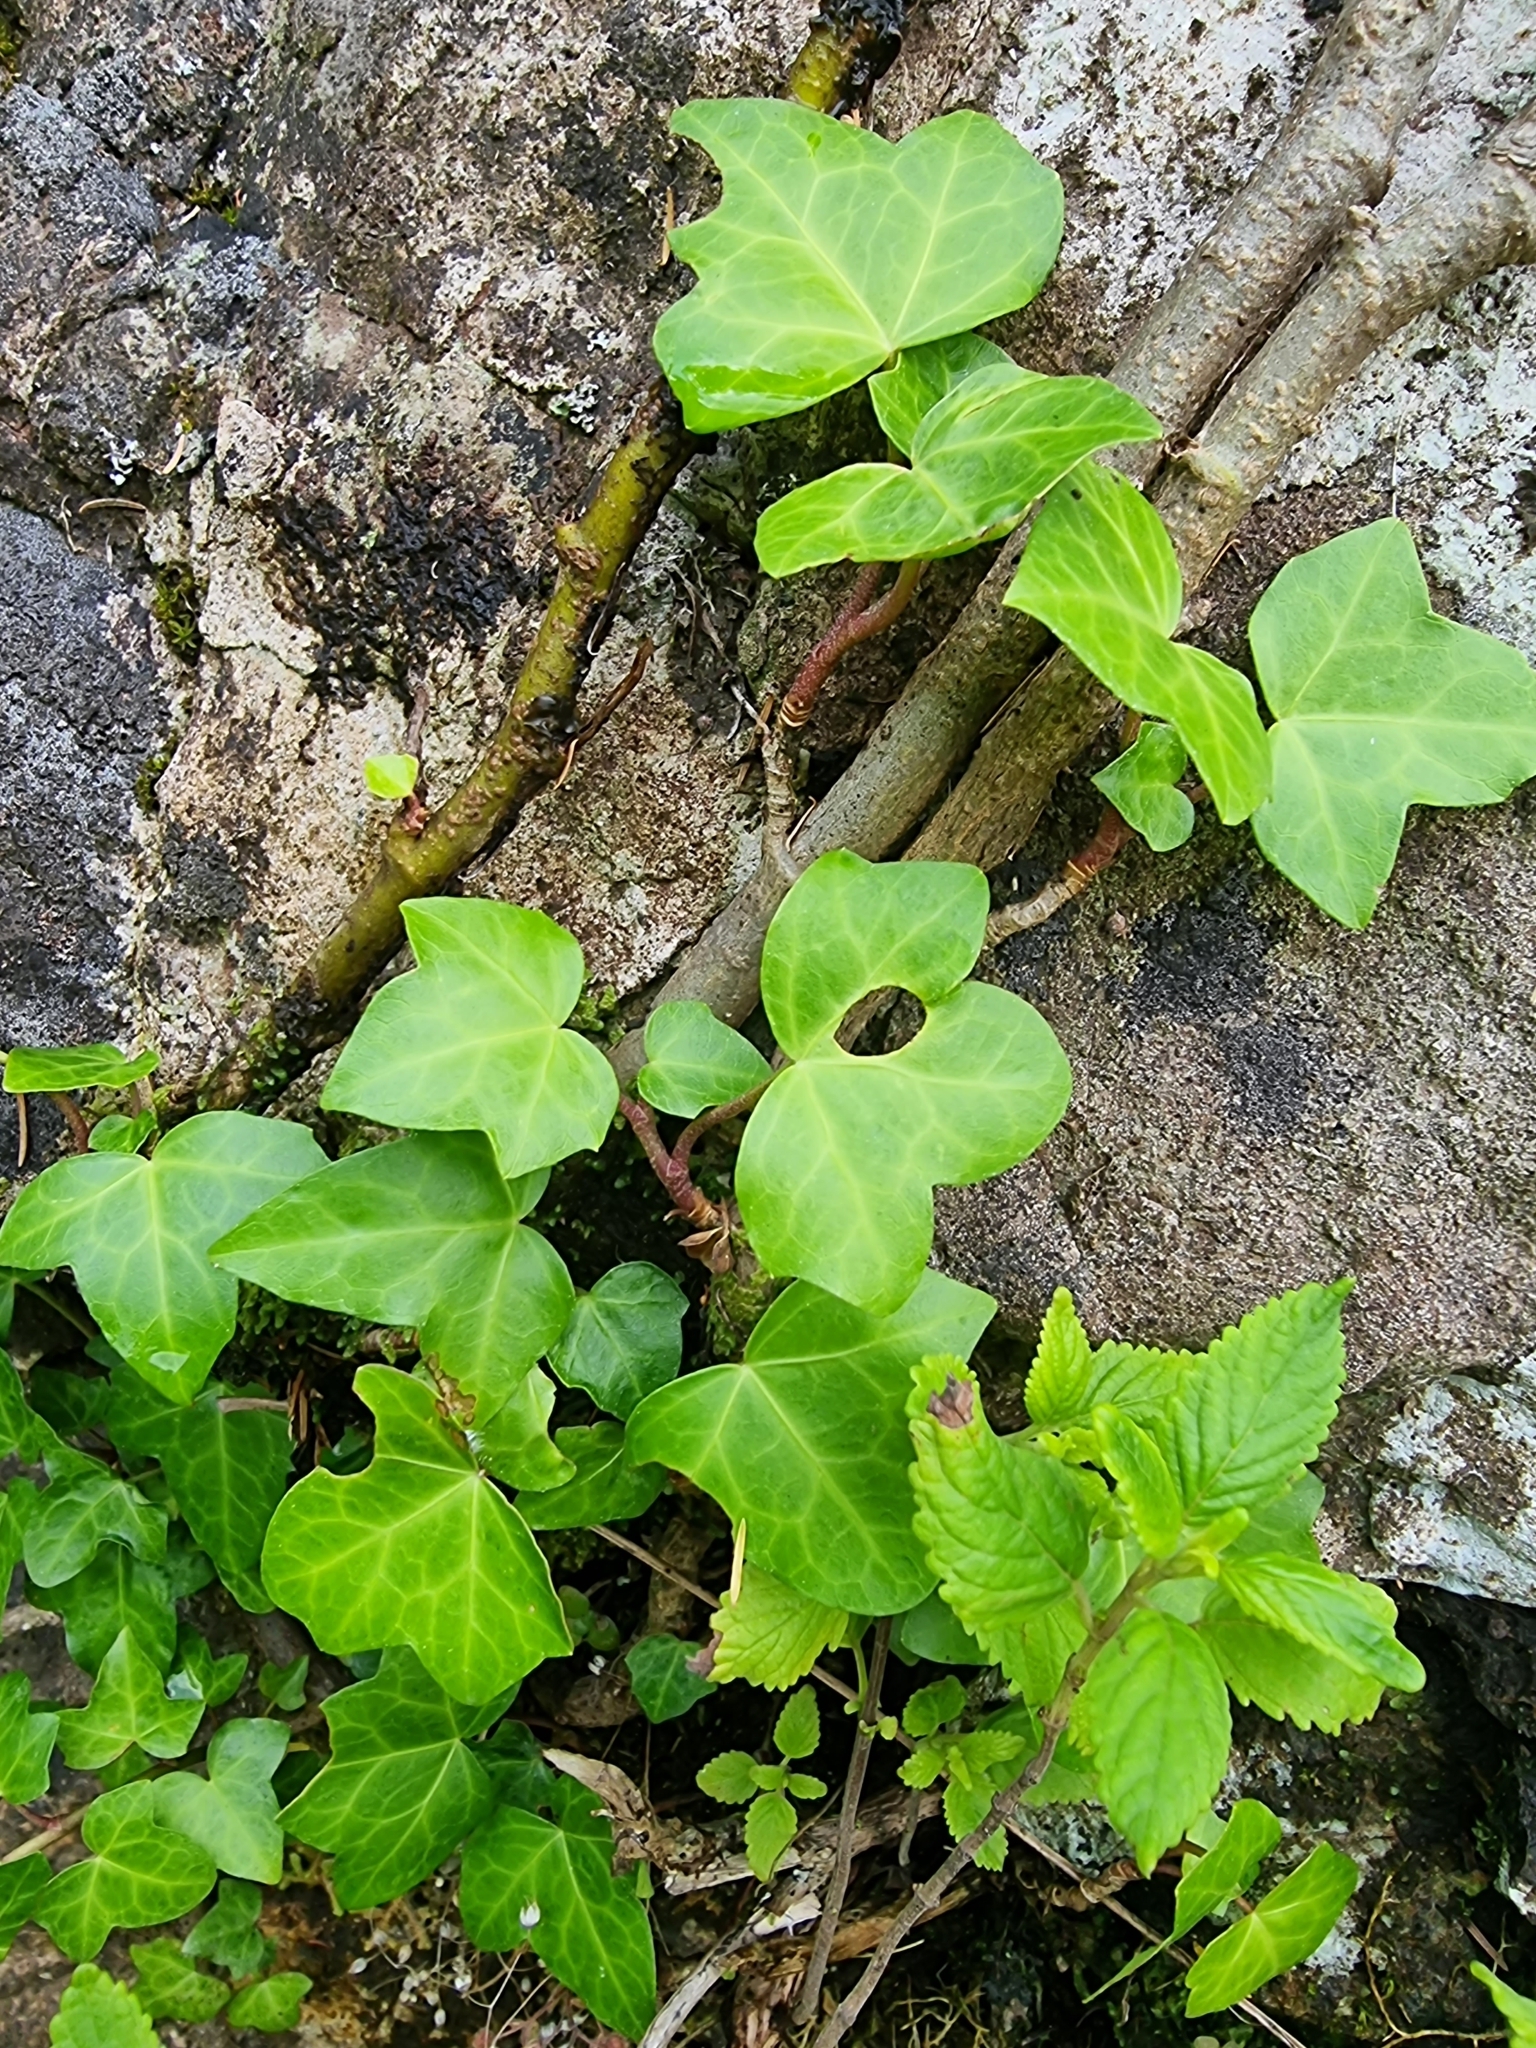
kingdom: Plantae
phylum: Tracheophyta
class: Magnoliopsida
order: Apiales
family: Araliaceae
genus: Hedera
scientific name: Hedera maderensis
